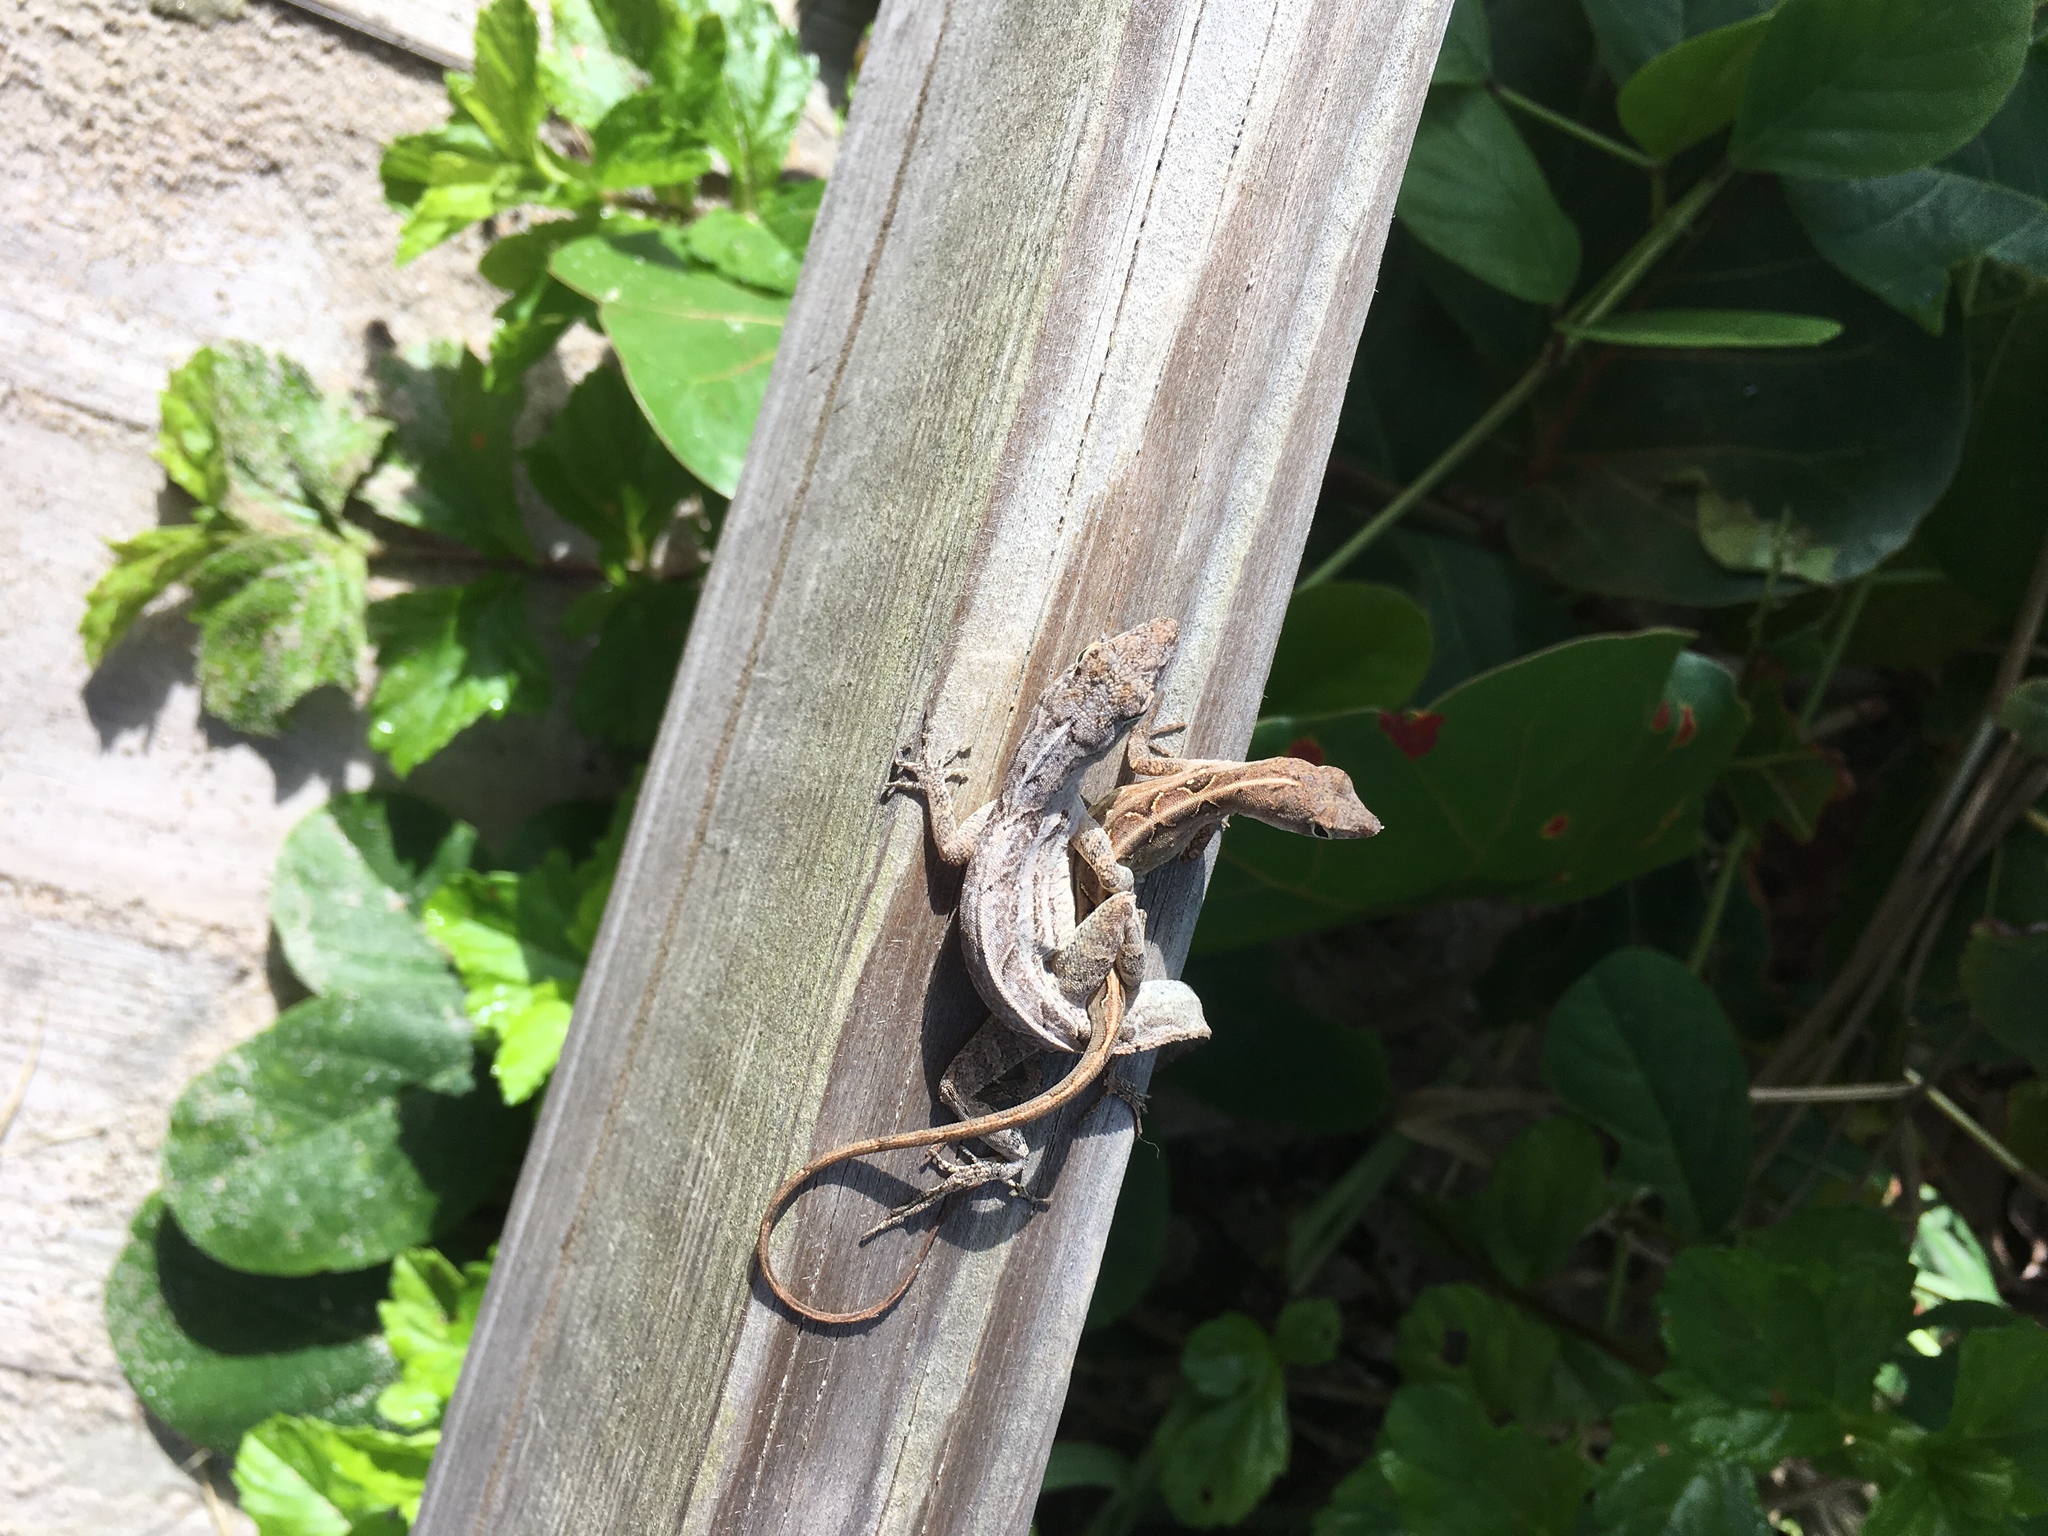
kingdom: Animalia
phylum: Chordata
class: Squamata
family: Dactyloidae
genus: Anolis
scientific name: Anolis sagrei
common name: Brown anole
